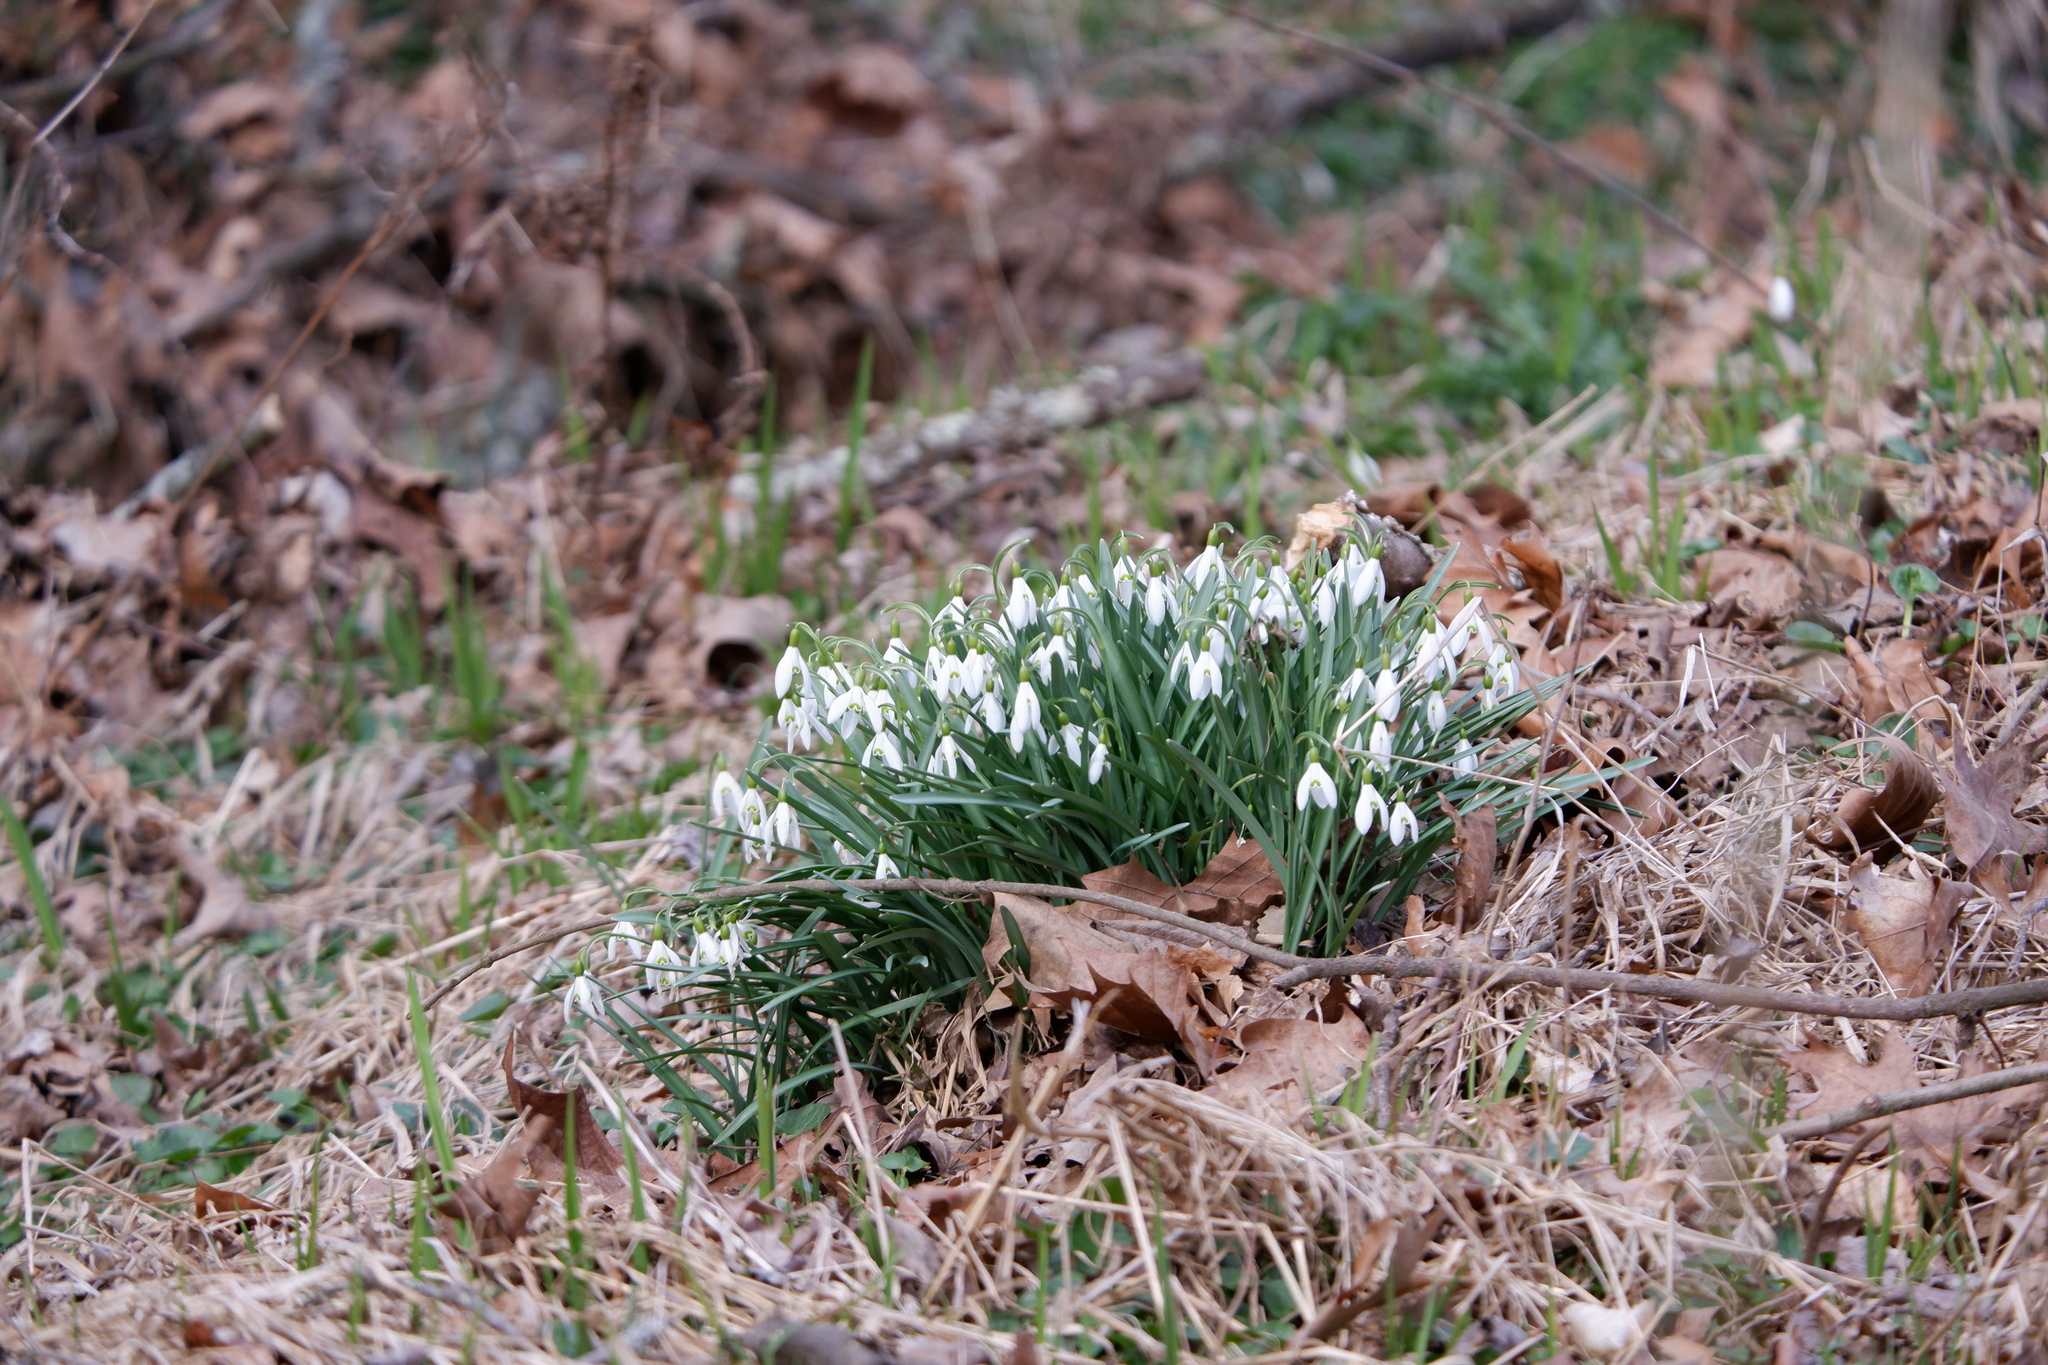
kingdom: Plantae
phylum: Tracheophyta
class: Liliopsida
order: Asparagales
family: Amaryllidaceae
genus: Galanthus
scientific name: Galanthus nivalis
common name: Snowdrop
